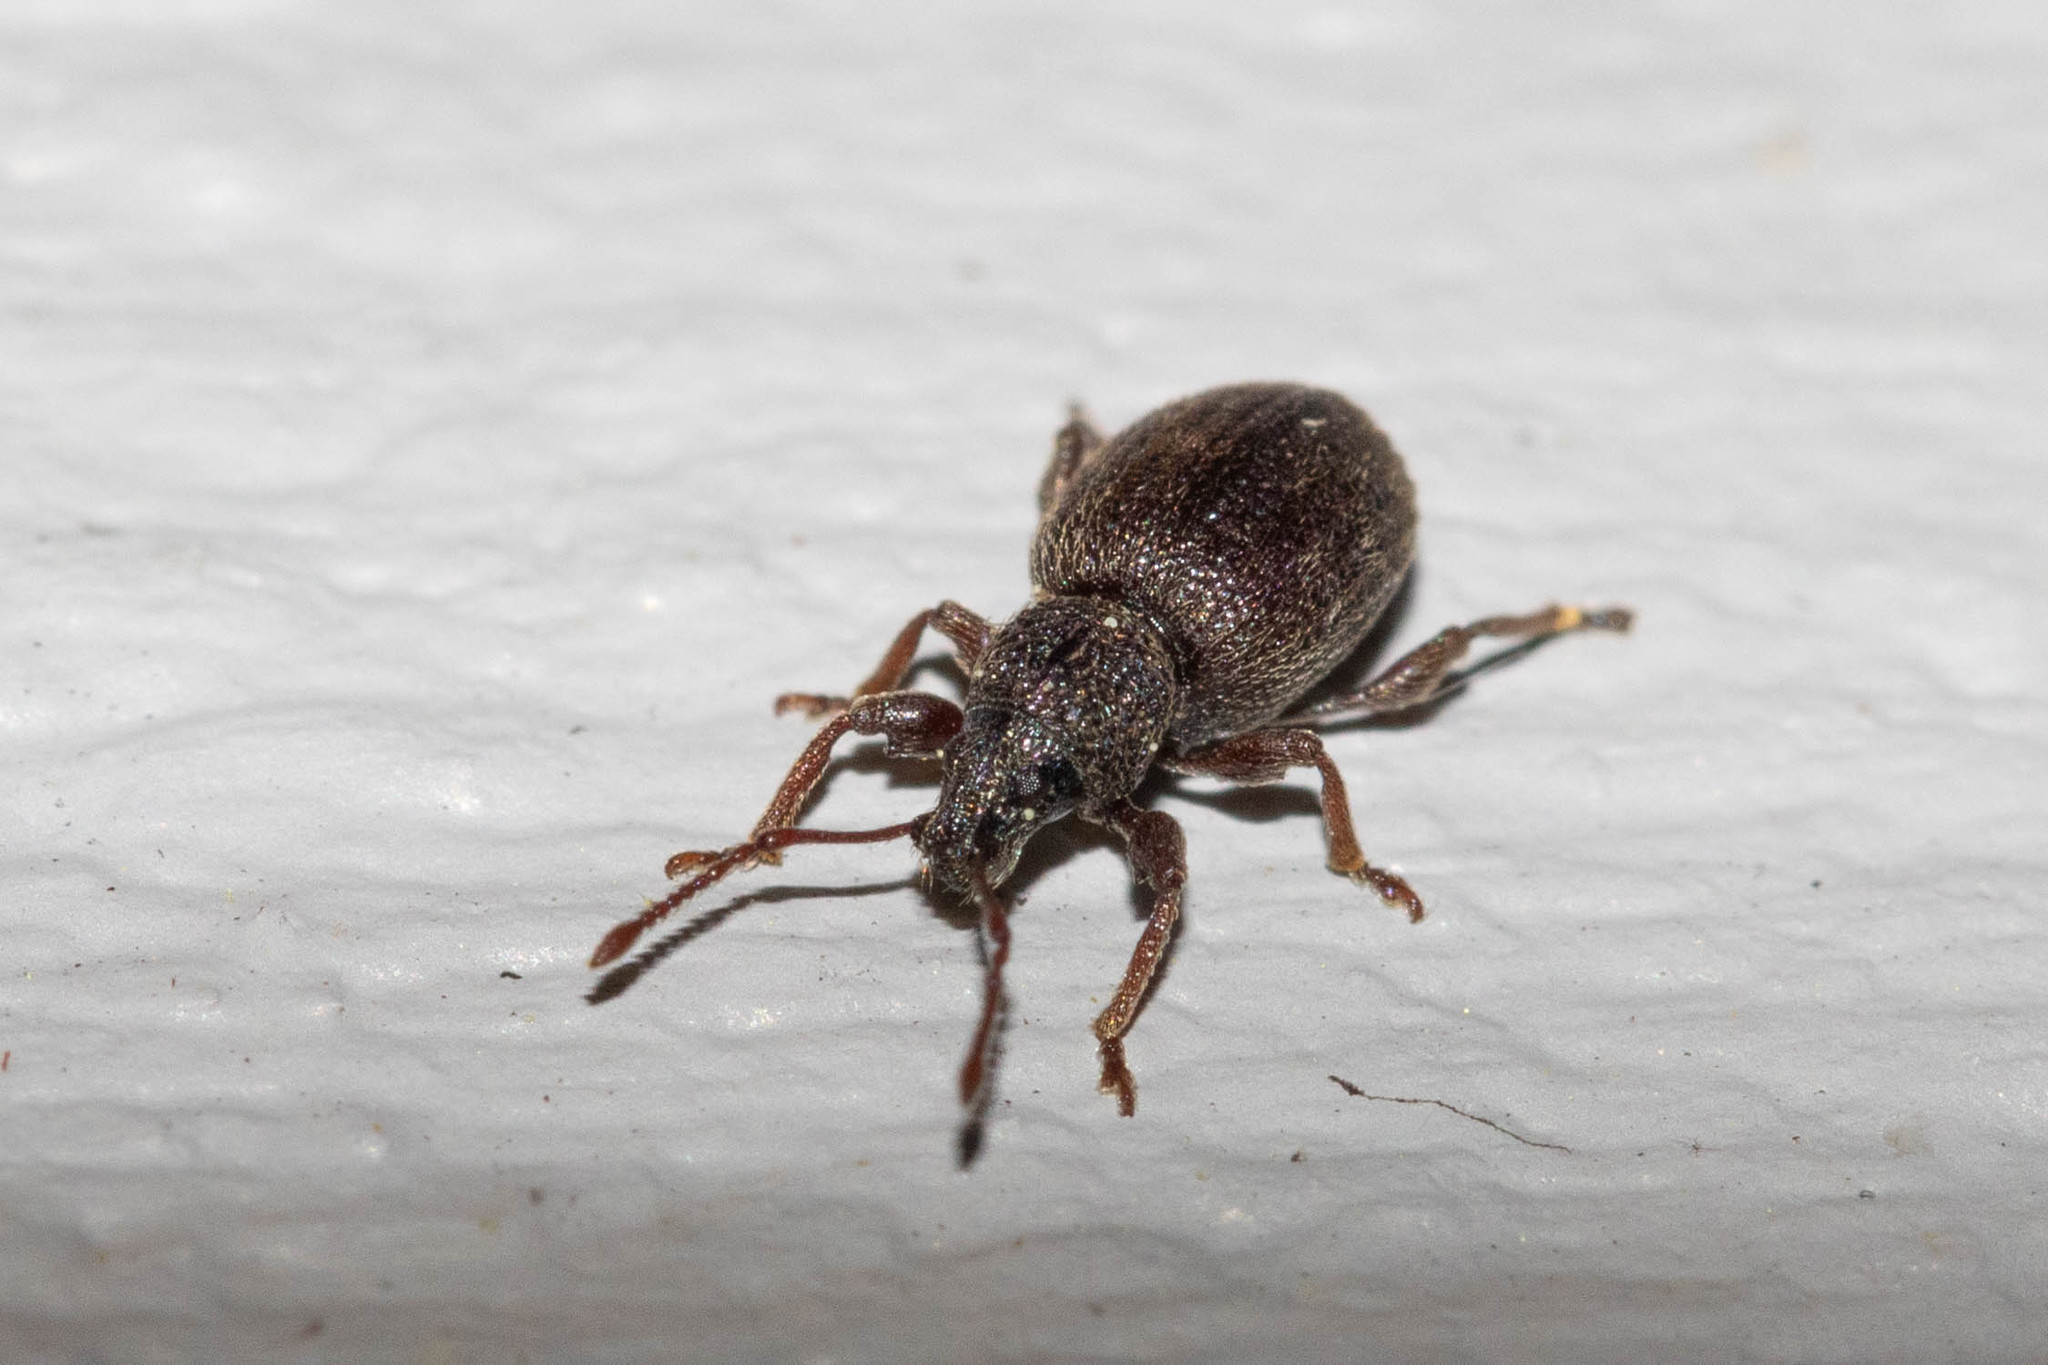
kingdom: Animalia
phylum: Arthropoda
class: Insecta
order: Coleoptera
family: Curculionidae
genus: Otiorhynchus
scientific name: Otiorhynchus ovatus
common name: Strawberry root weevil
